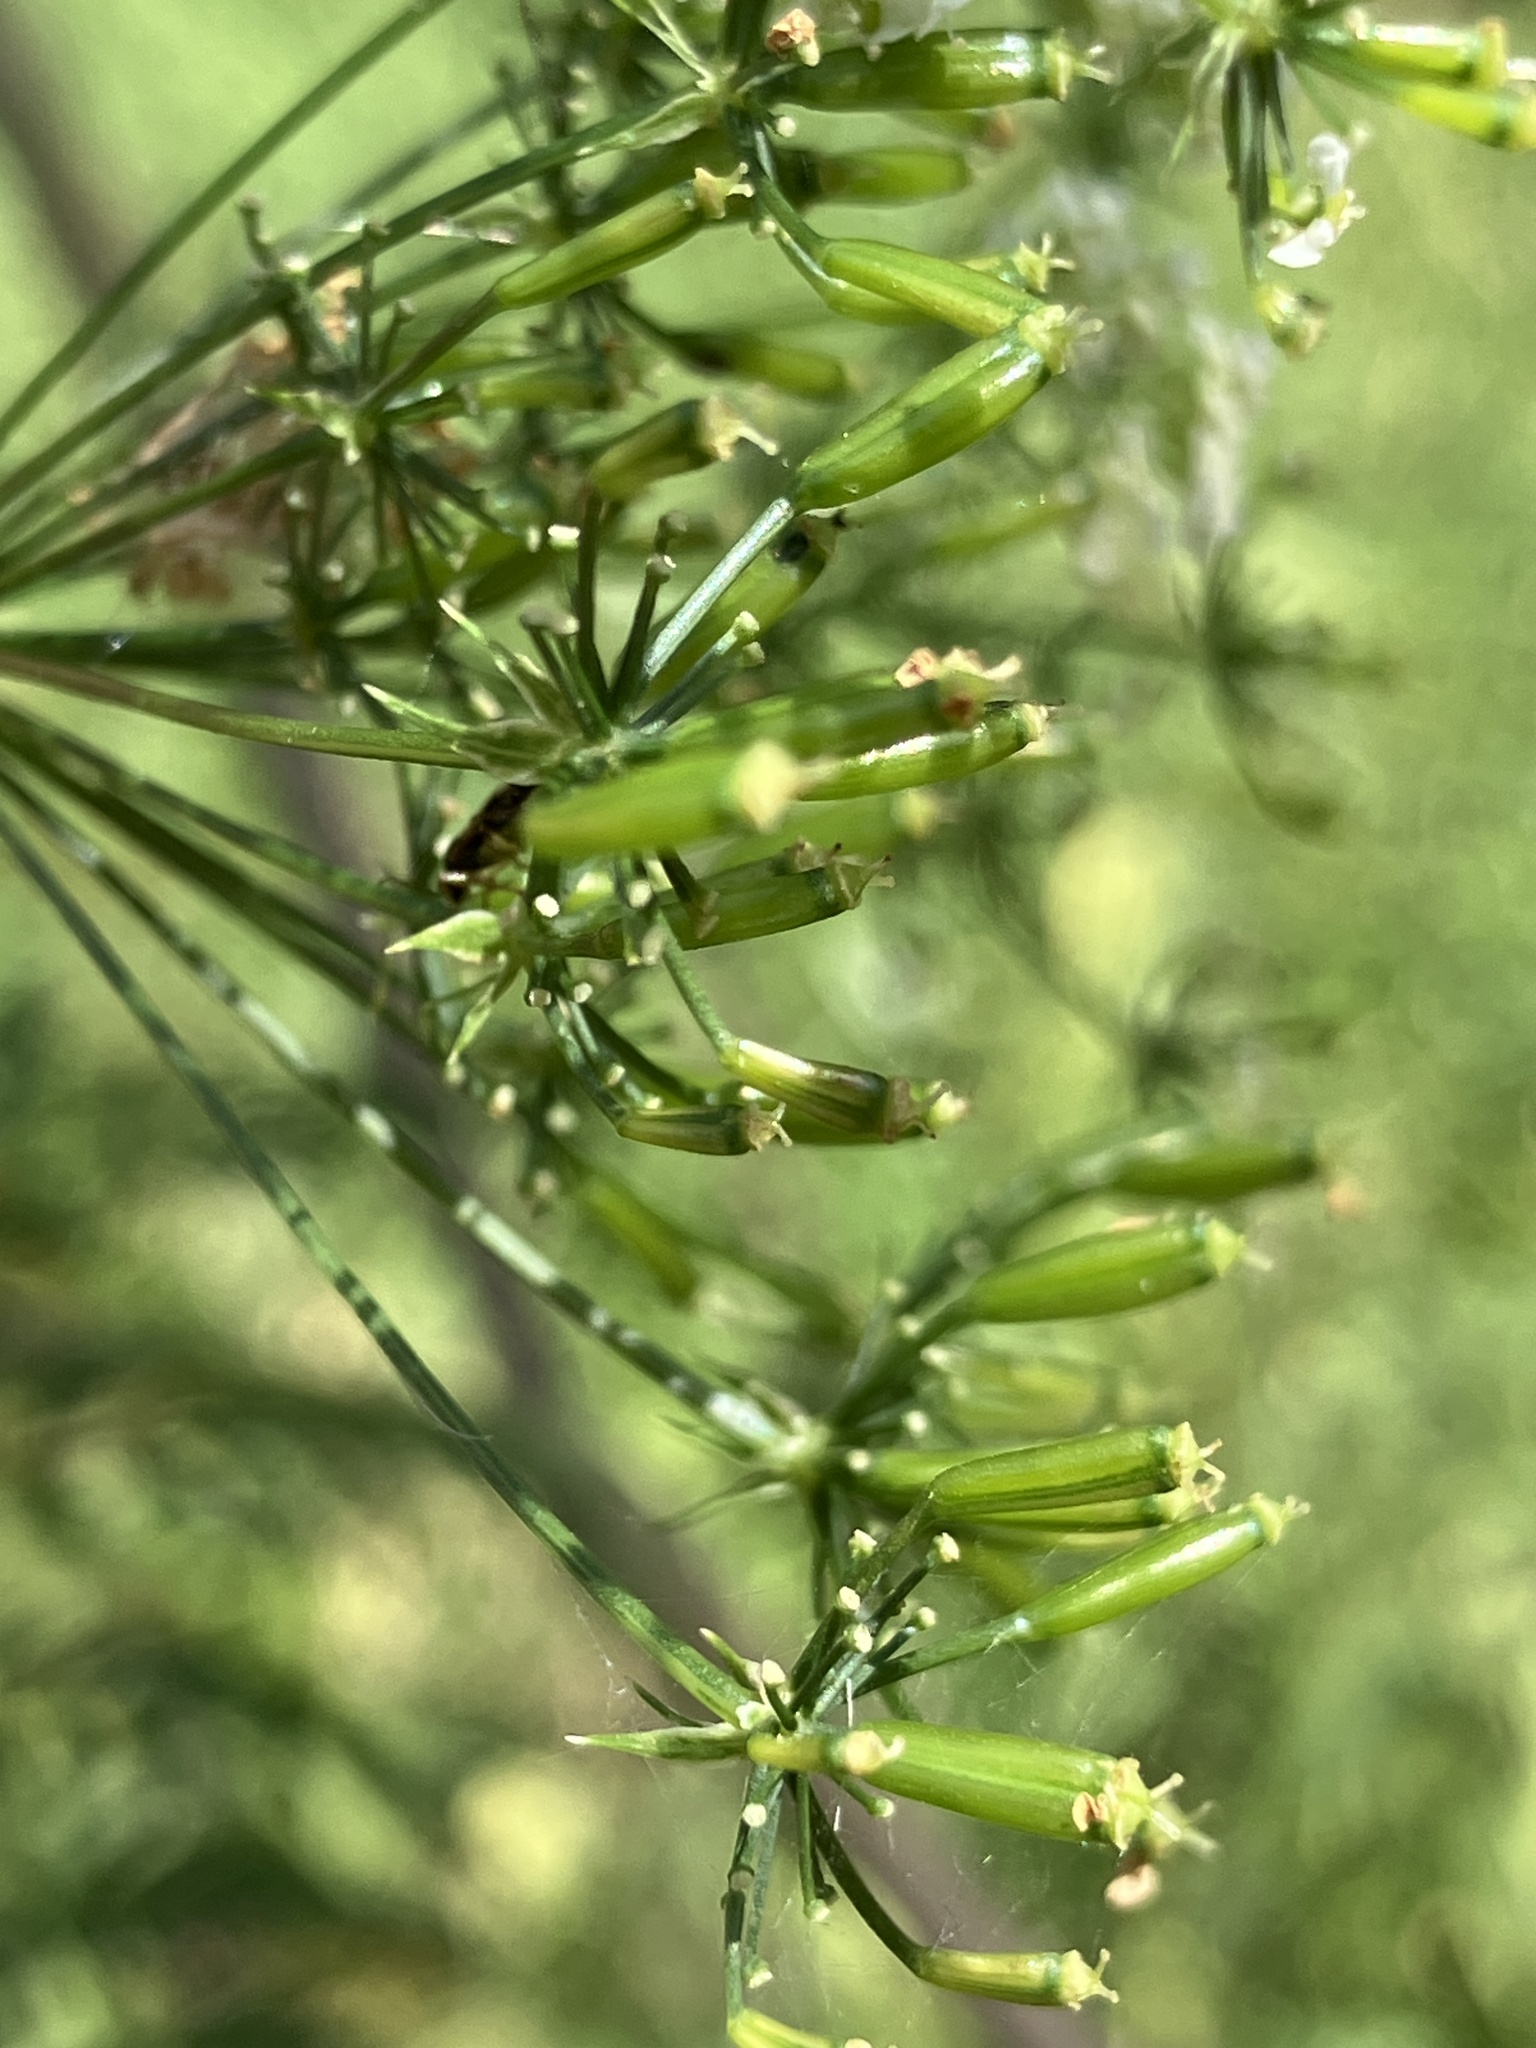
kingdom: Plantae
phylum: Tracheophyta
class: Magnoliopsida
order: Apiales
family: Apiaceae
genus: Chaerophyllum
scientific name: Chaerophyllum bulbosum
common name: Bulbous chervil
